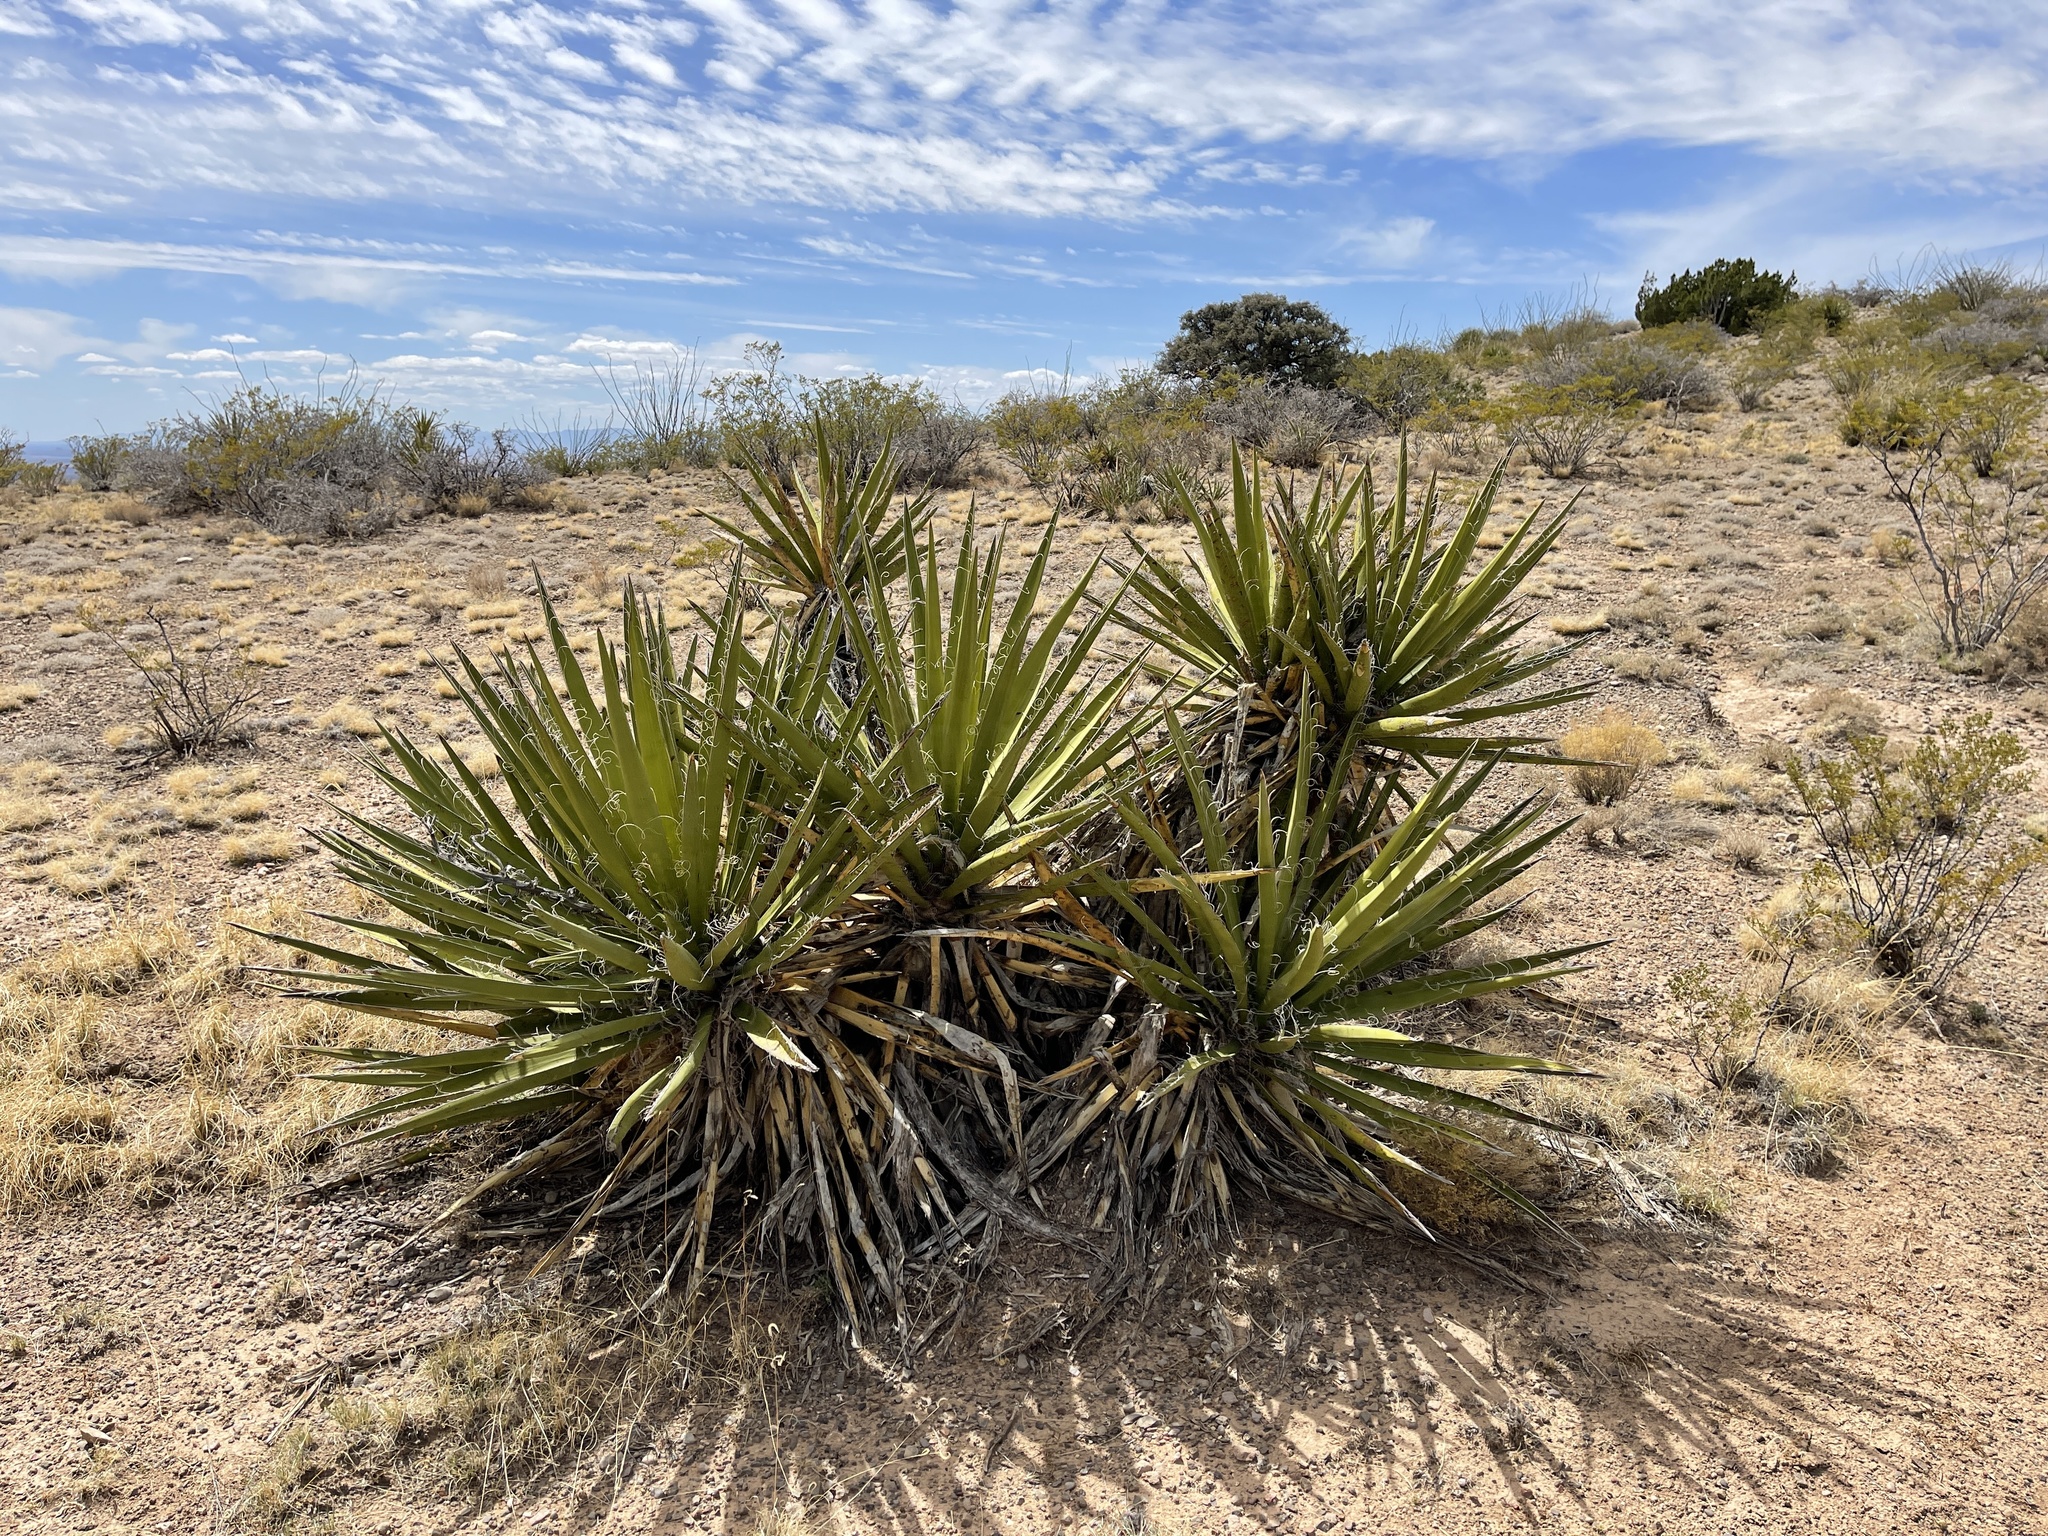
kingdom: Plantae
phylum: Tracheophyta
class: Liliopsida
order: Asparagales
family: Asparagaceae
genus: Yucca
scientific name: Yucca baccata
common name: Banana yucca
